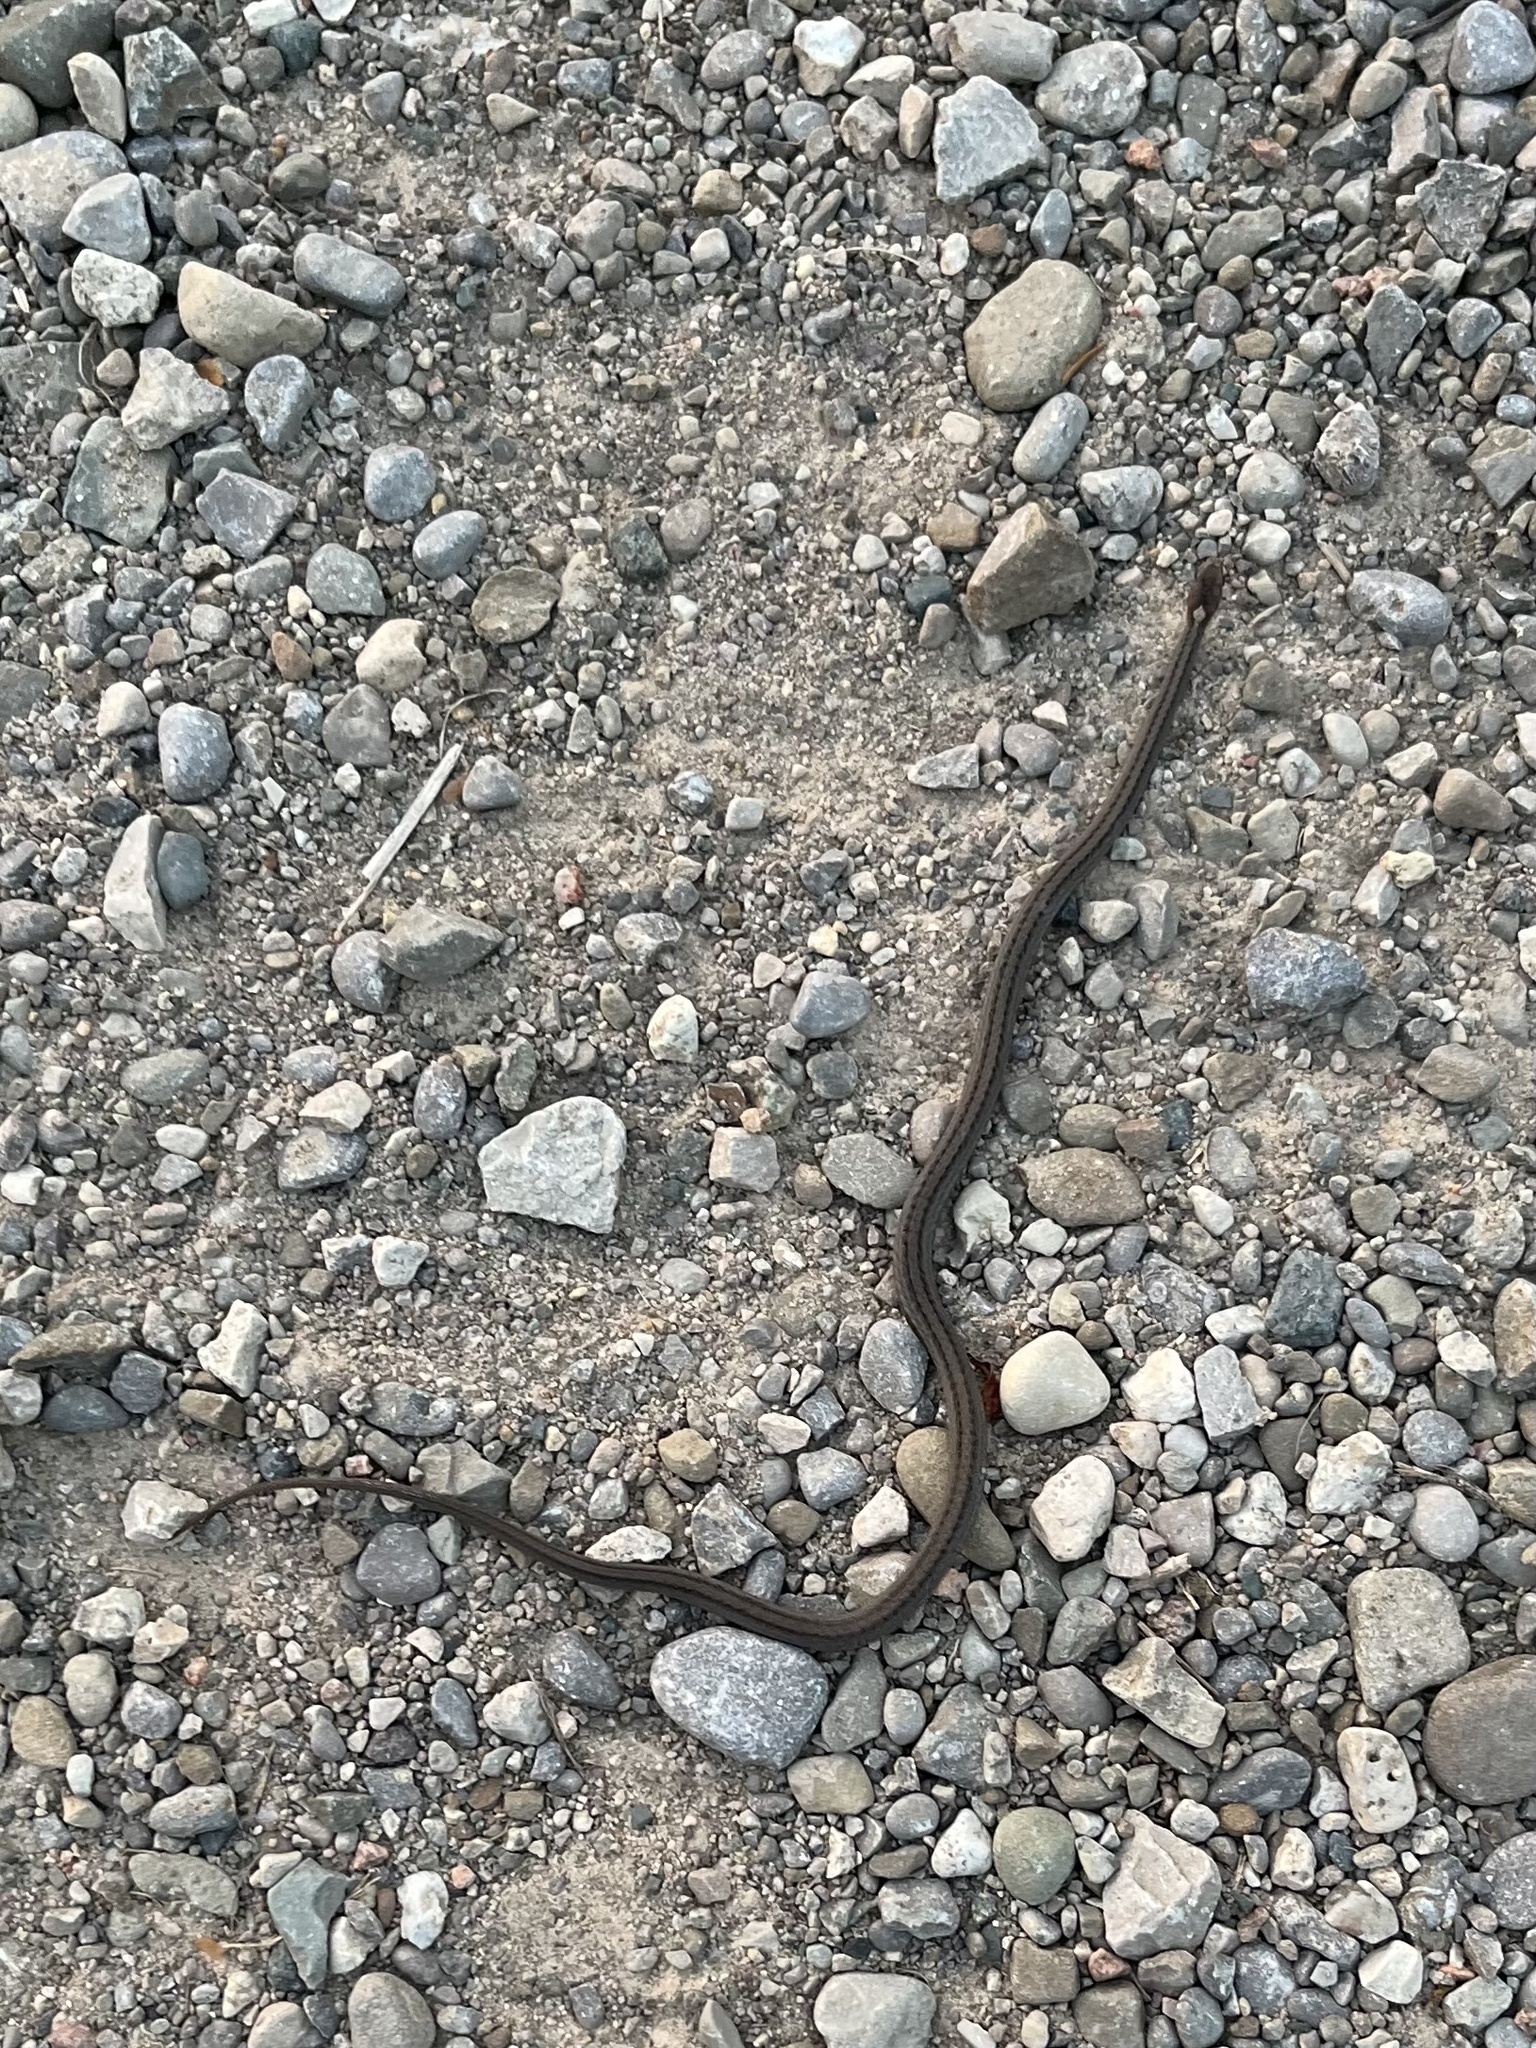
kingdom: Animalia
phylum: Chordata
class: Squamata
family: Colubridae
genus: Storeria
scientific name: Storeria occipitomaculata
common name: Redbelly snake
